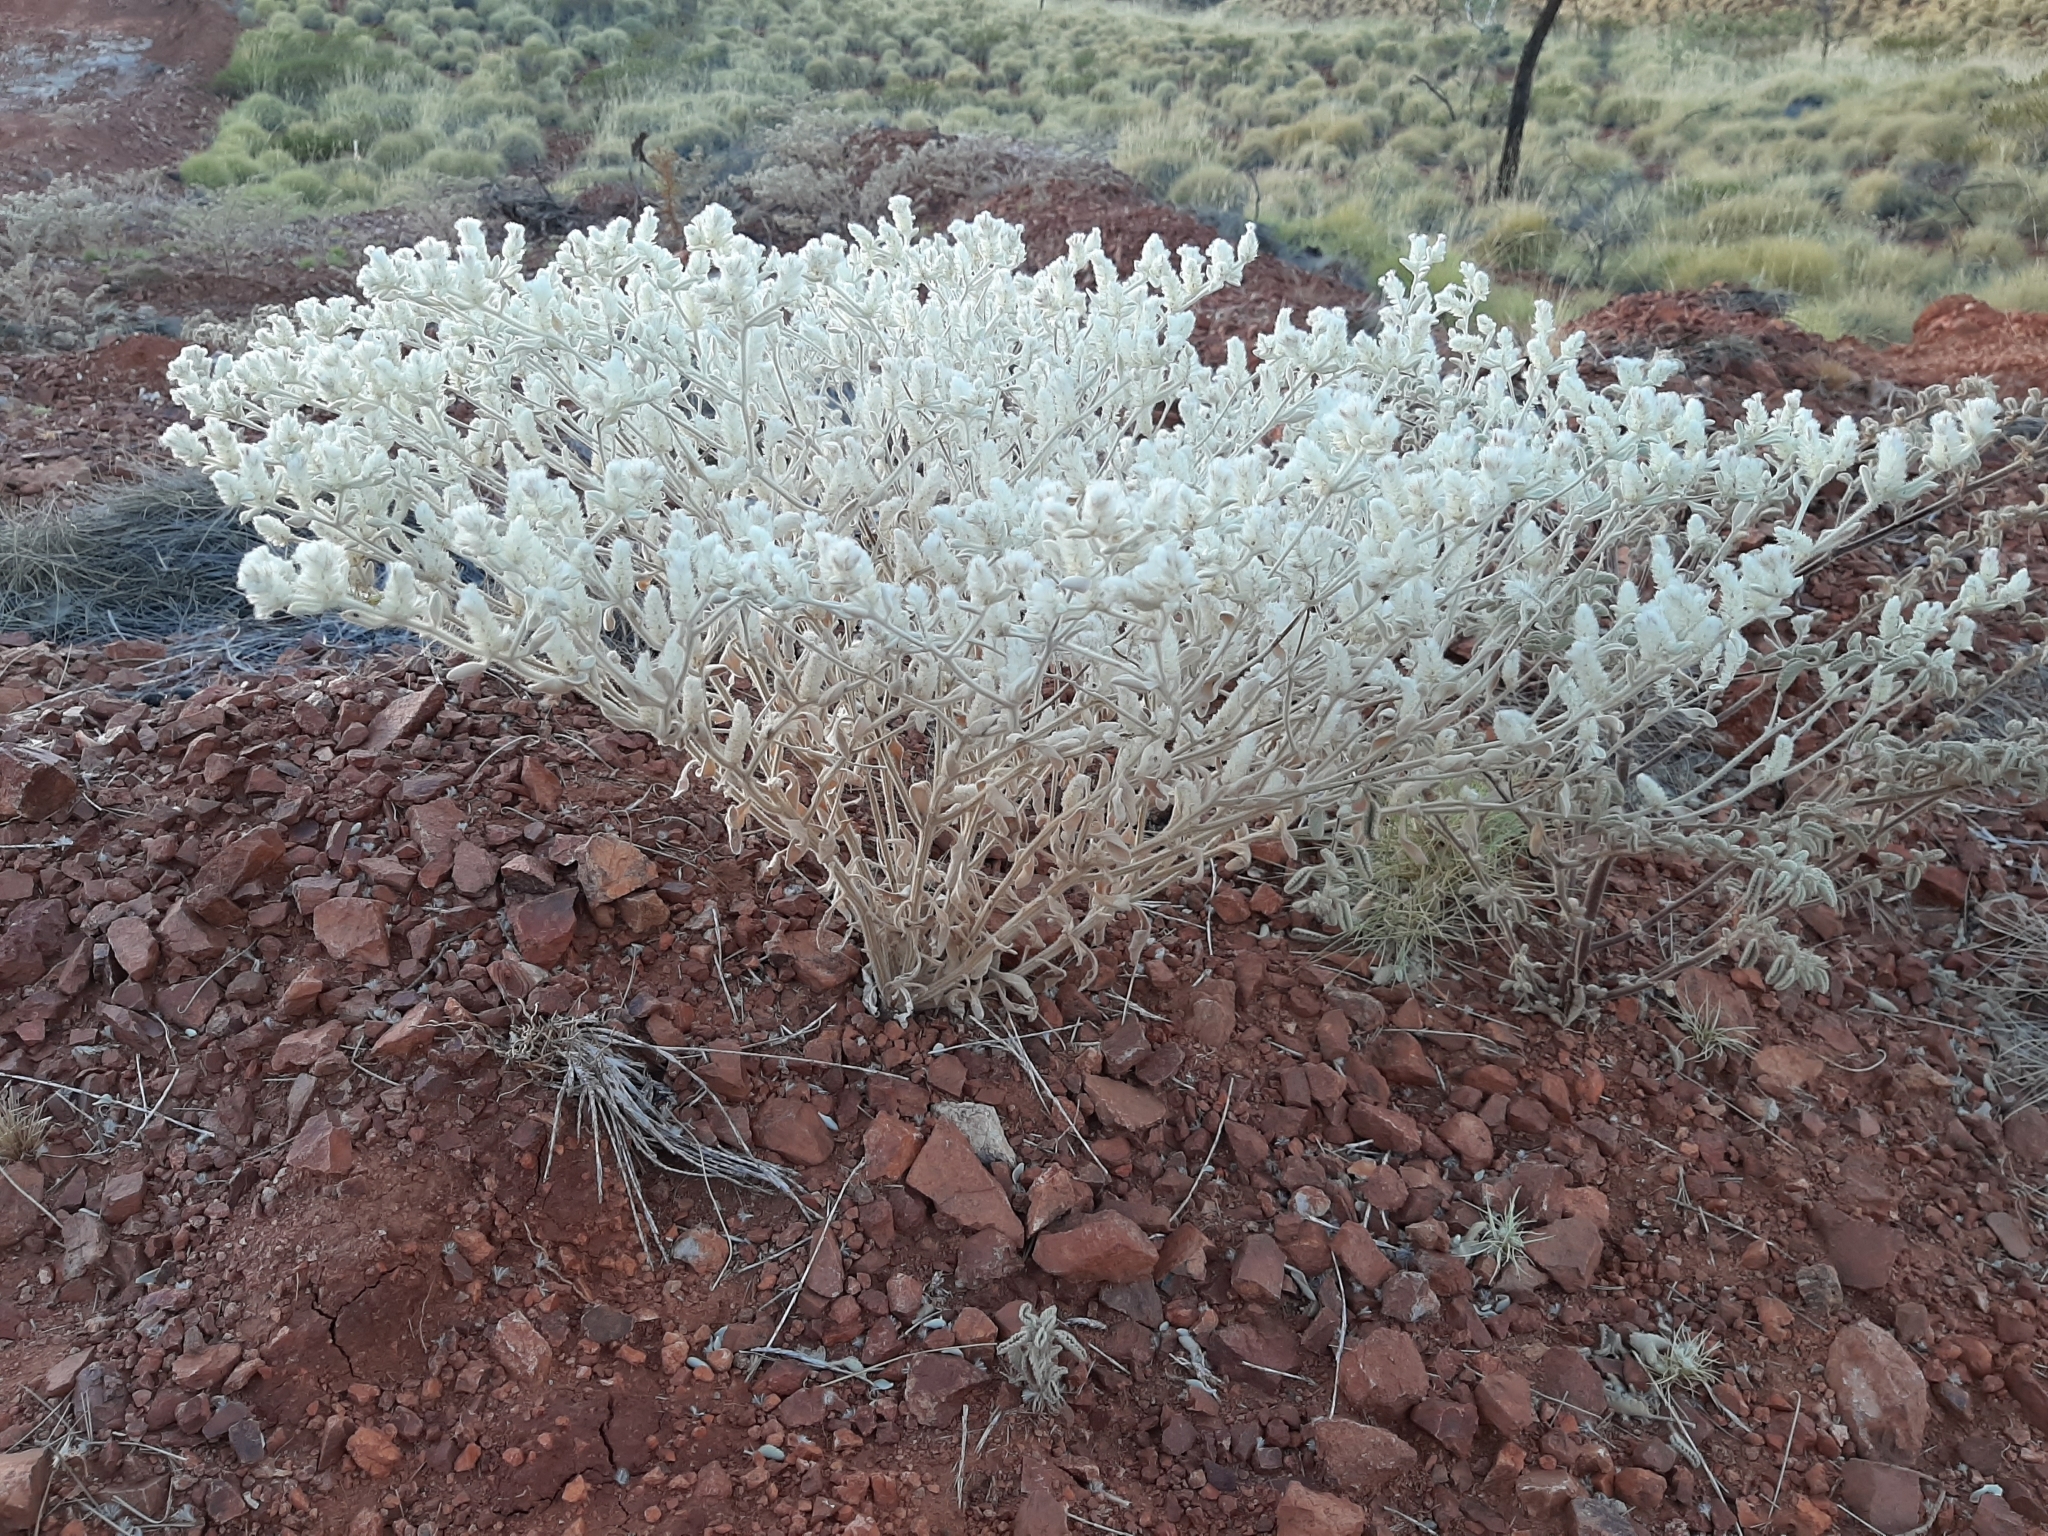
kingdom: Plantae
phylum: Tracheophyta
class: Magnoliopsida
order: Caryophyllales
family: Amaranthaceae
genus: Ptilotus
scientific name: Ptilotus incanus
